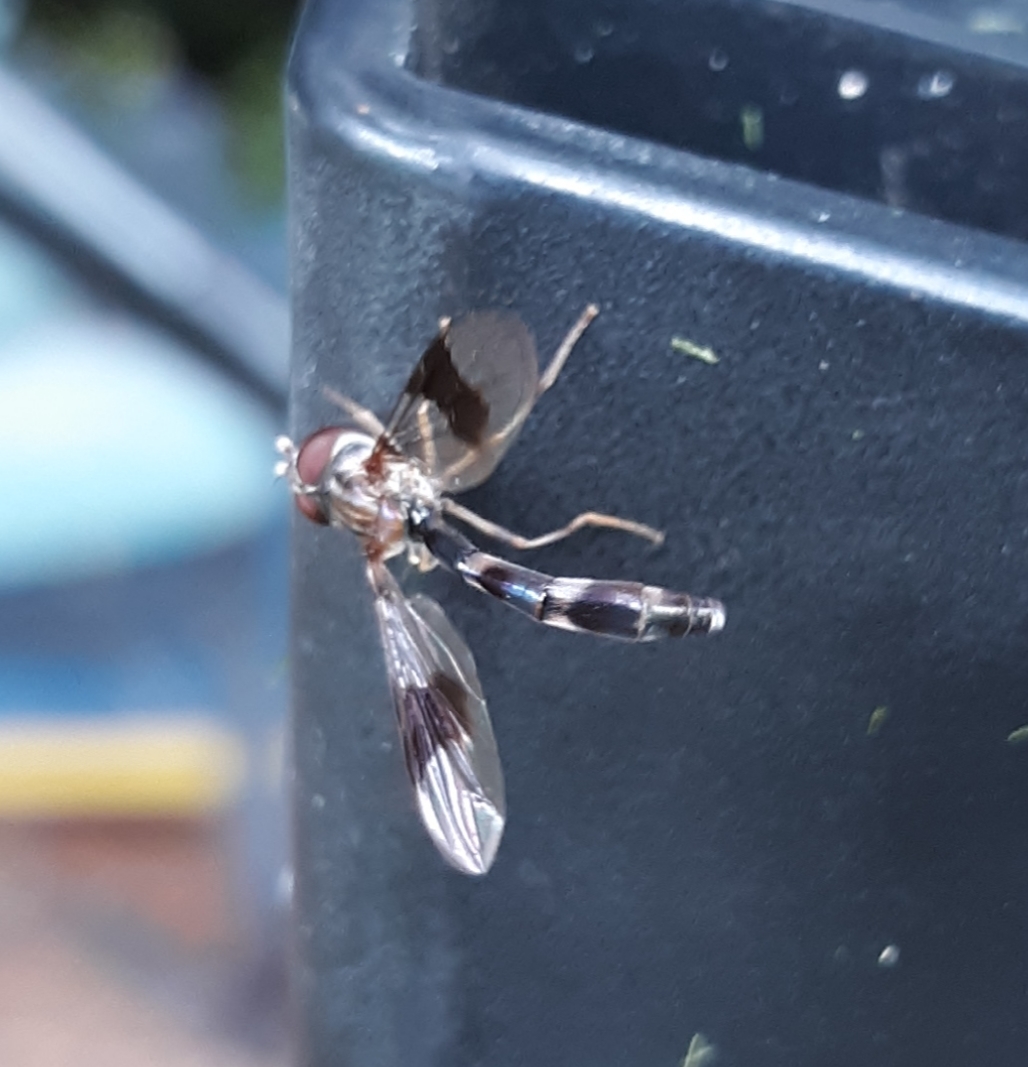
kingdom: Animalia
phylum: Arthropoda
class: Insecta
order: Diptera
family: Syrphidae
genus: Hypocritanus
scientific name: Hypocritanus fascipennis
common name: Eastern band-winged hover fly
